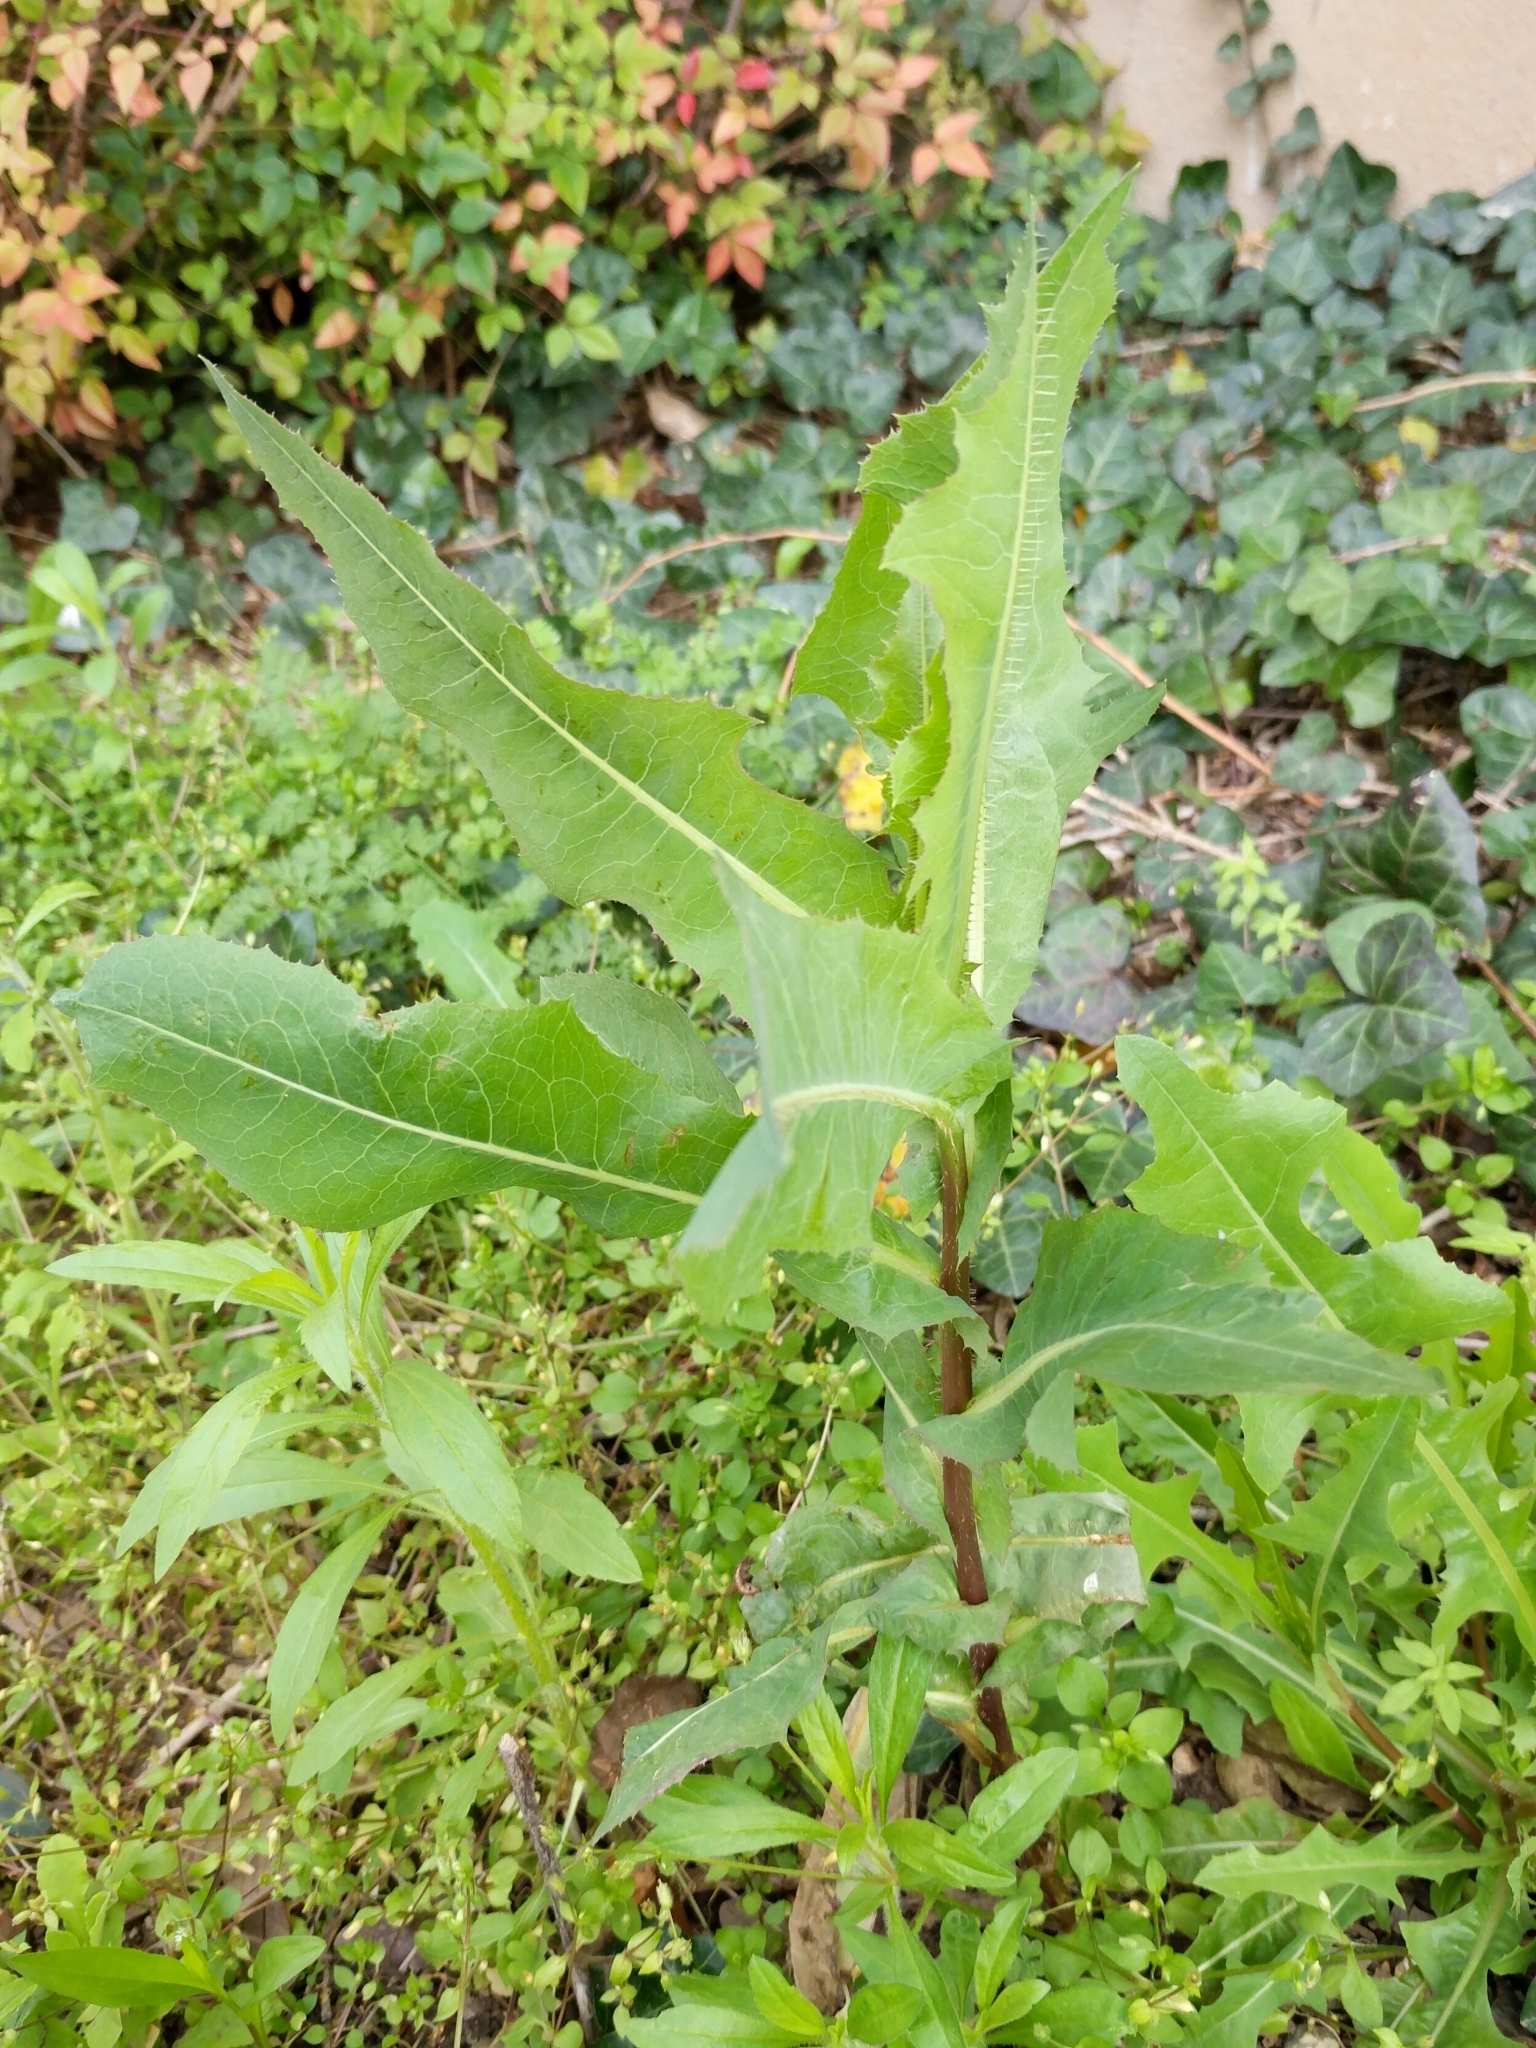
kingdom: Plantae
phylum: Tracheophyta
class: Magnoliopsida
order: Asterales
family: Asteraceae
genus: Lactuca
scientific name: Lactuca serriola
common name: Prickly lettuce
